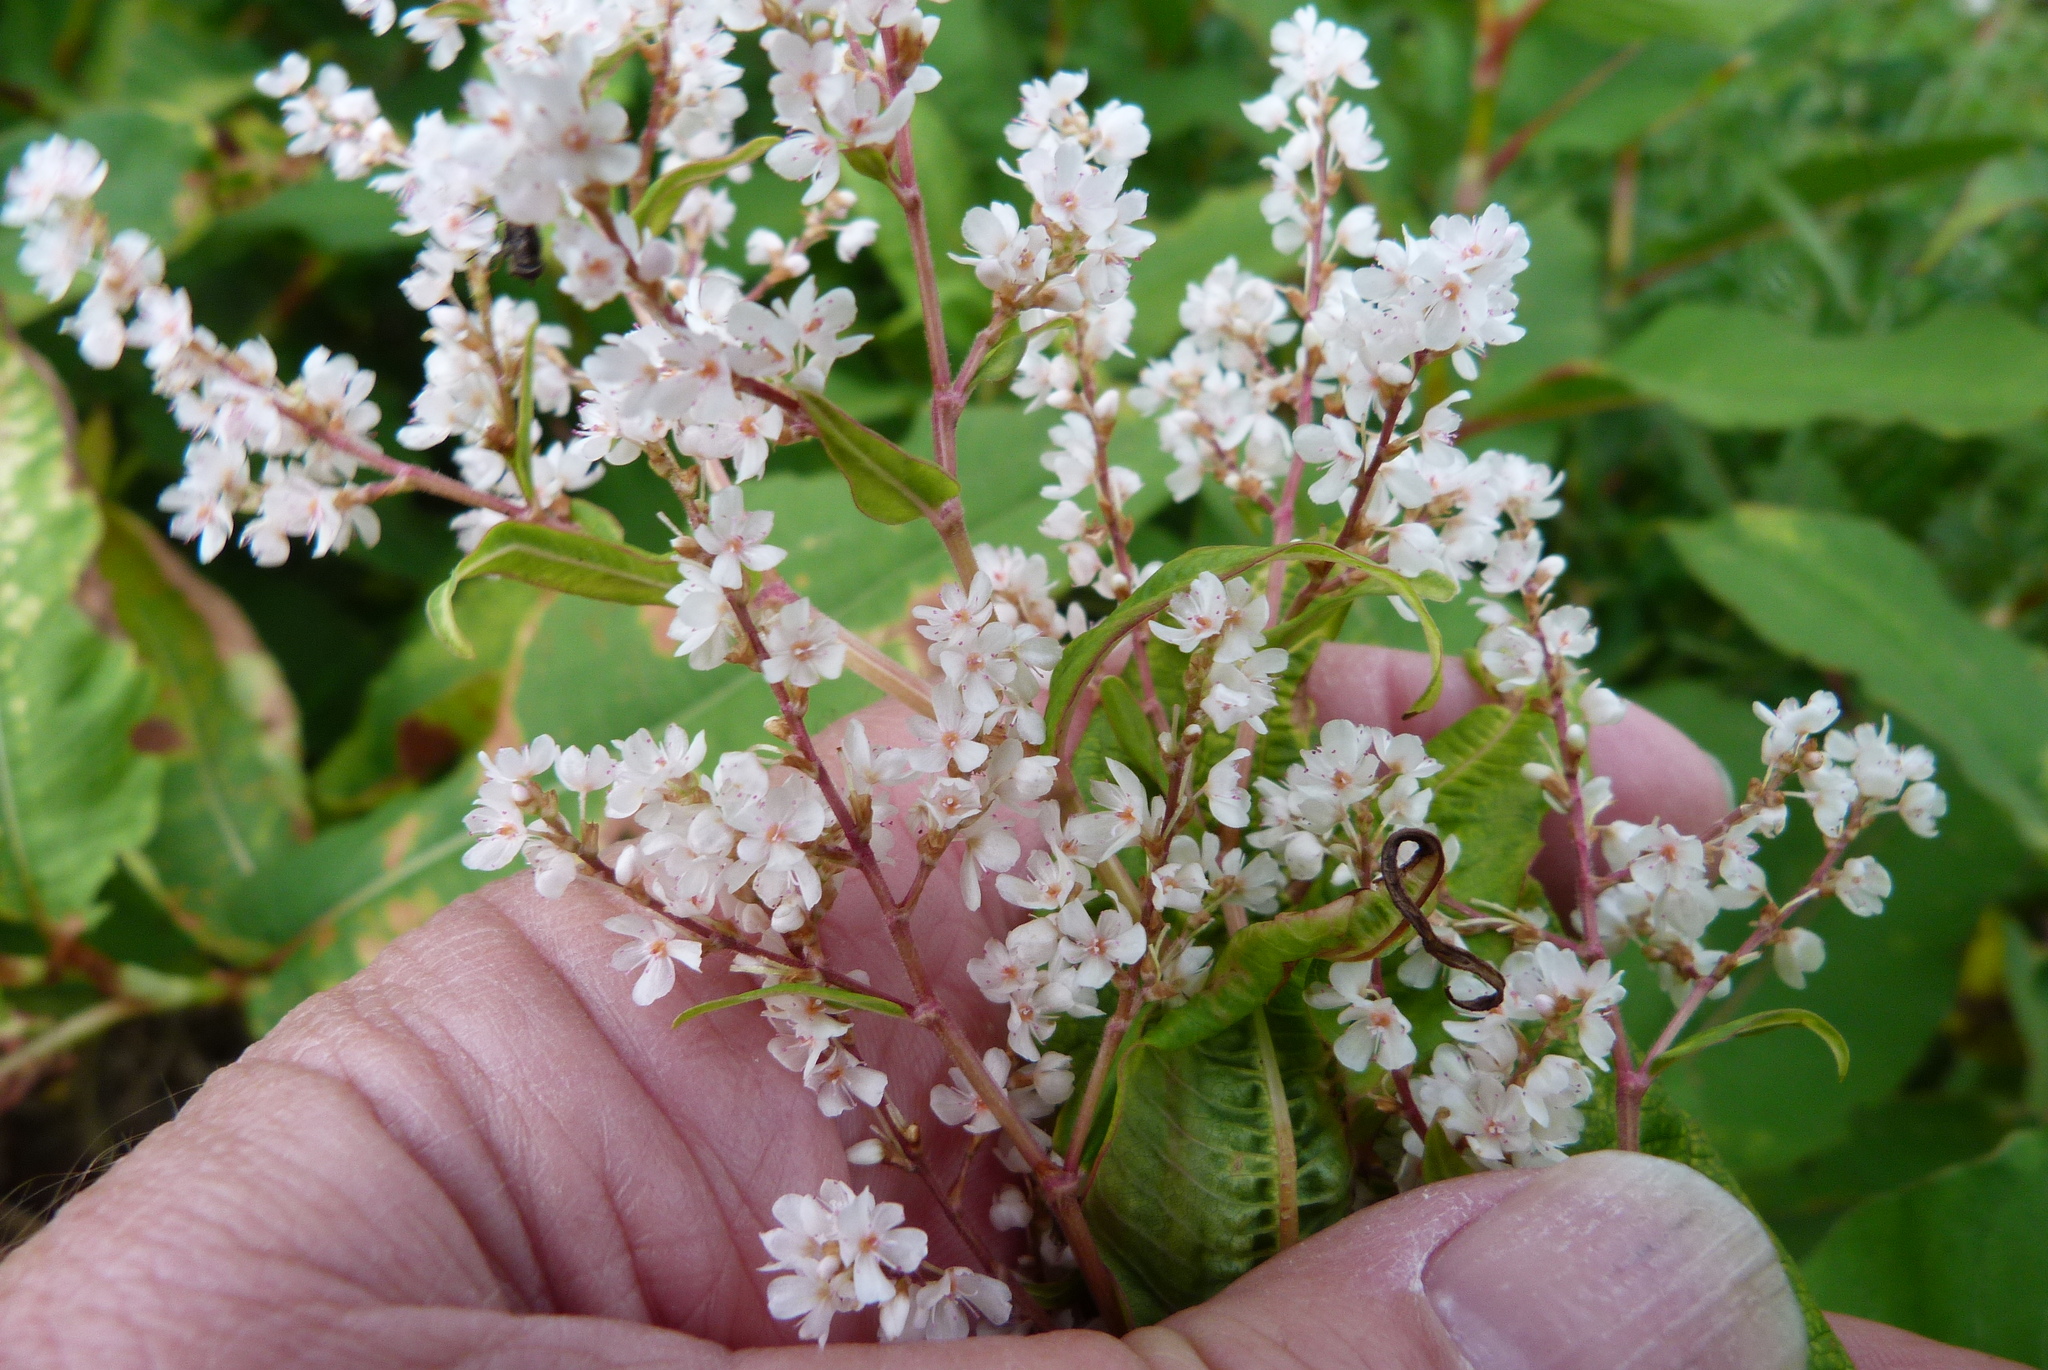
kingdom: Plantae
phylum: Tracheophyta
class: Magnoliopsida
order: Caryophyllales
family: Polygonaceae
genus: Koenigia
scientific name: Koenigia polystachya
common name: Himalayan knotweed
